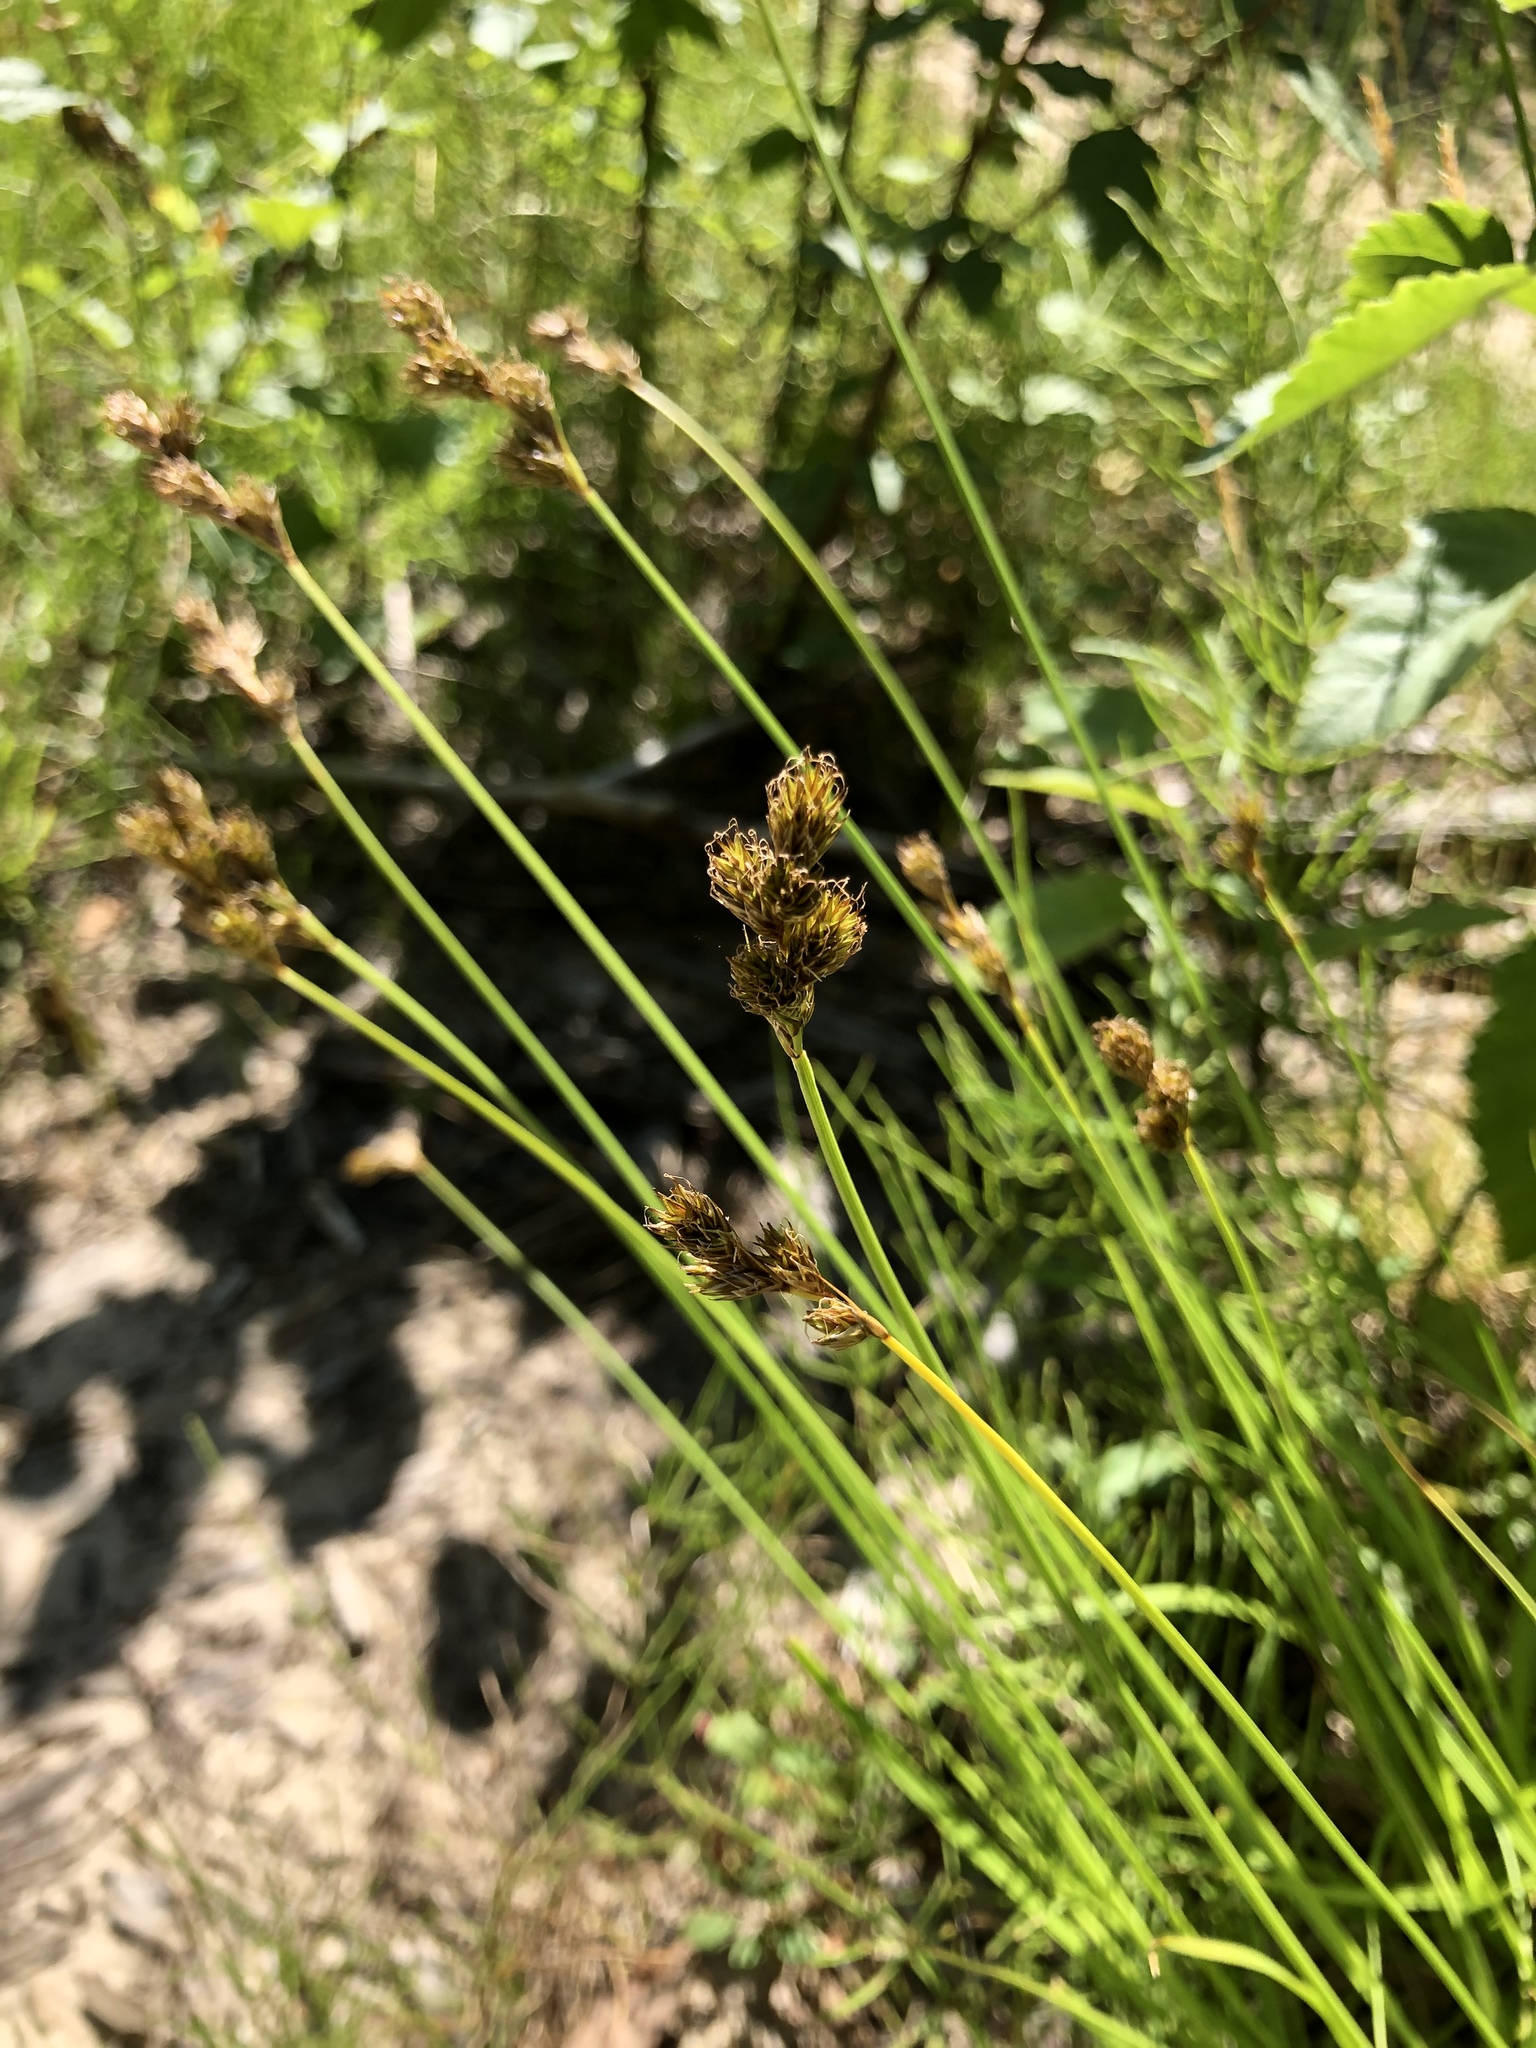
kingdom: Plantae
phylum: Tracheophyta
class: Liliopsida
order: Poales
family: Cyperaceae
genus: Carex
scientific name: Carex leporina
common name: Oval sedge
